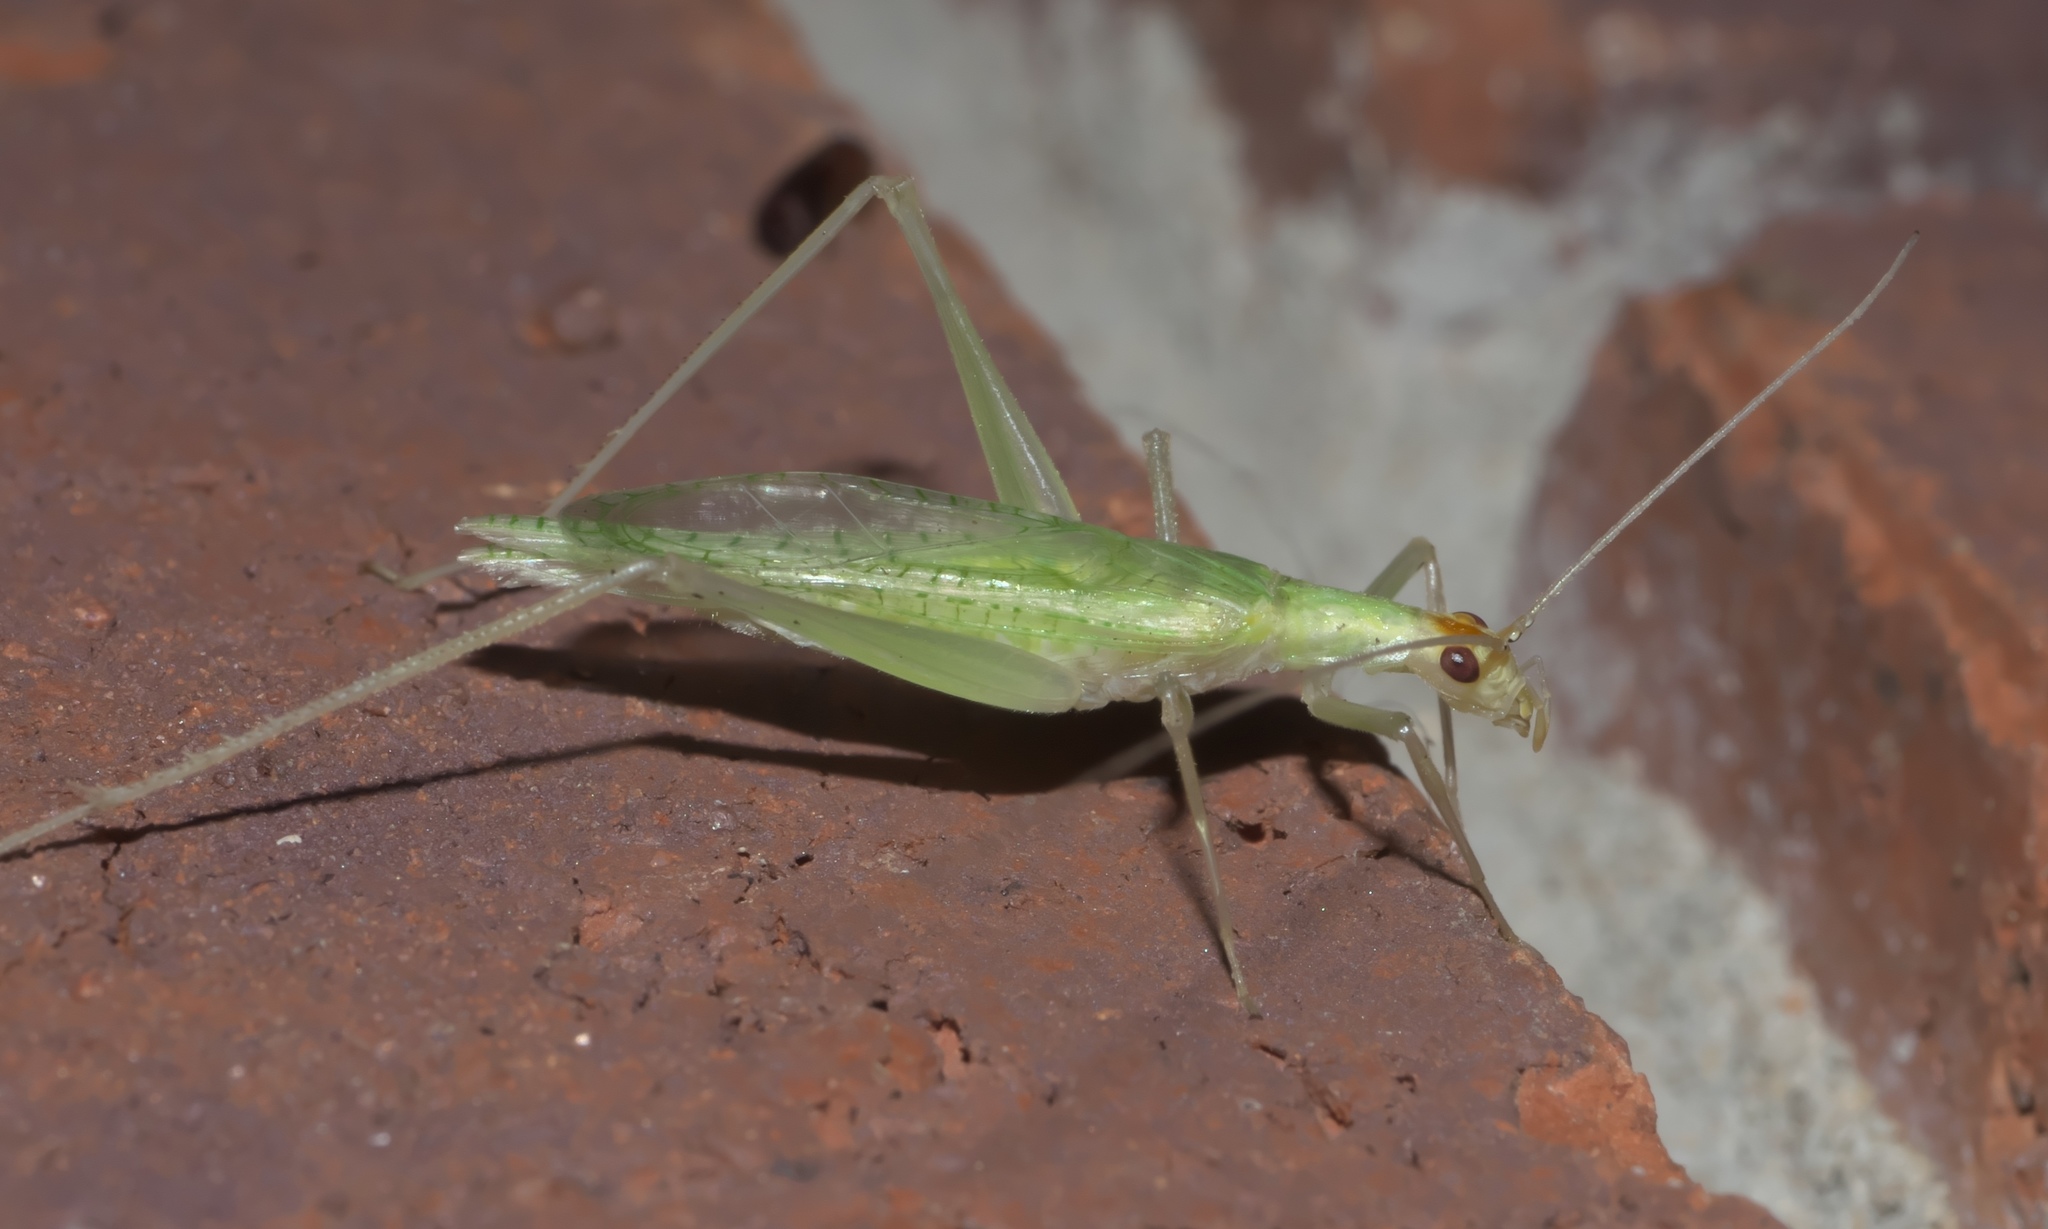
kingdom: Animalia
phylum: Arthropoda
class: Insecta
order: Orthoptera
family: Gryllidae
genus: Oecanthus
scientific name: Oecanthus niveus
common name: Narrow-winged tree cricket
